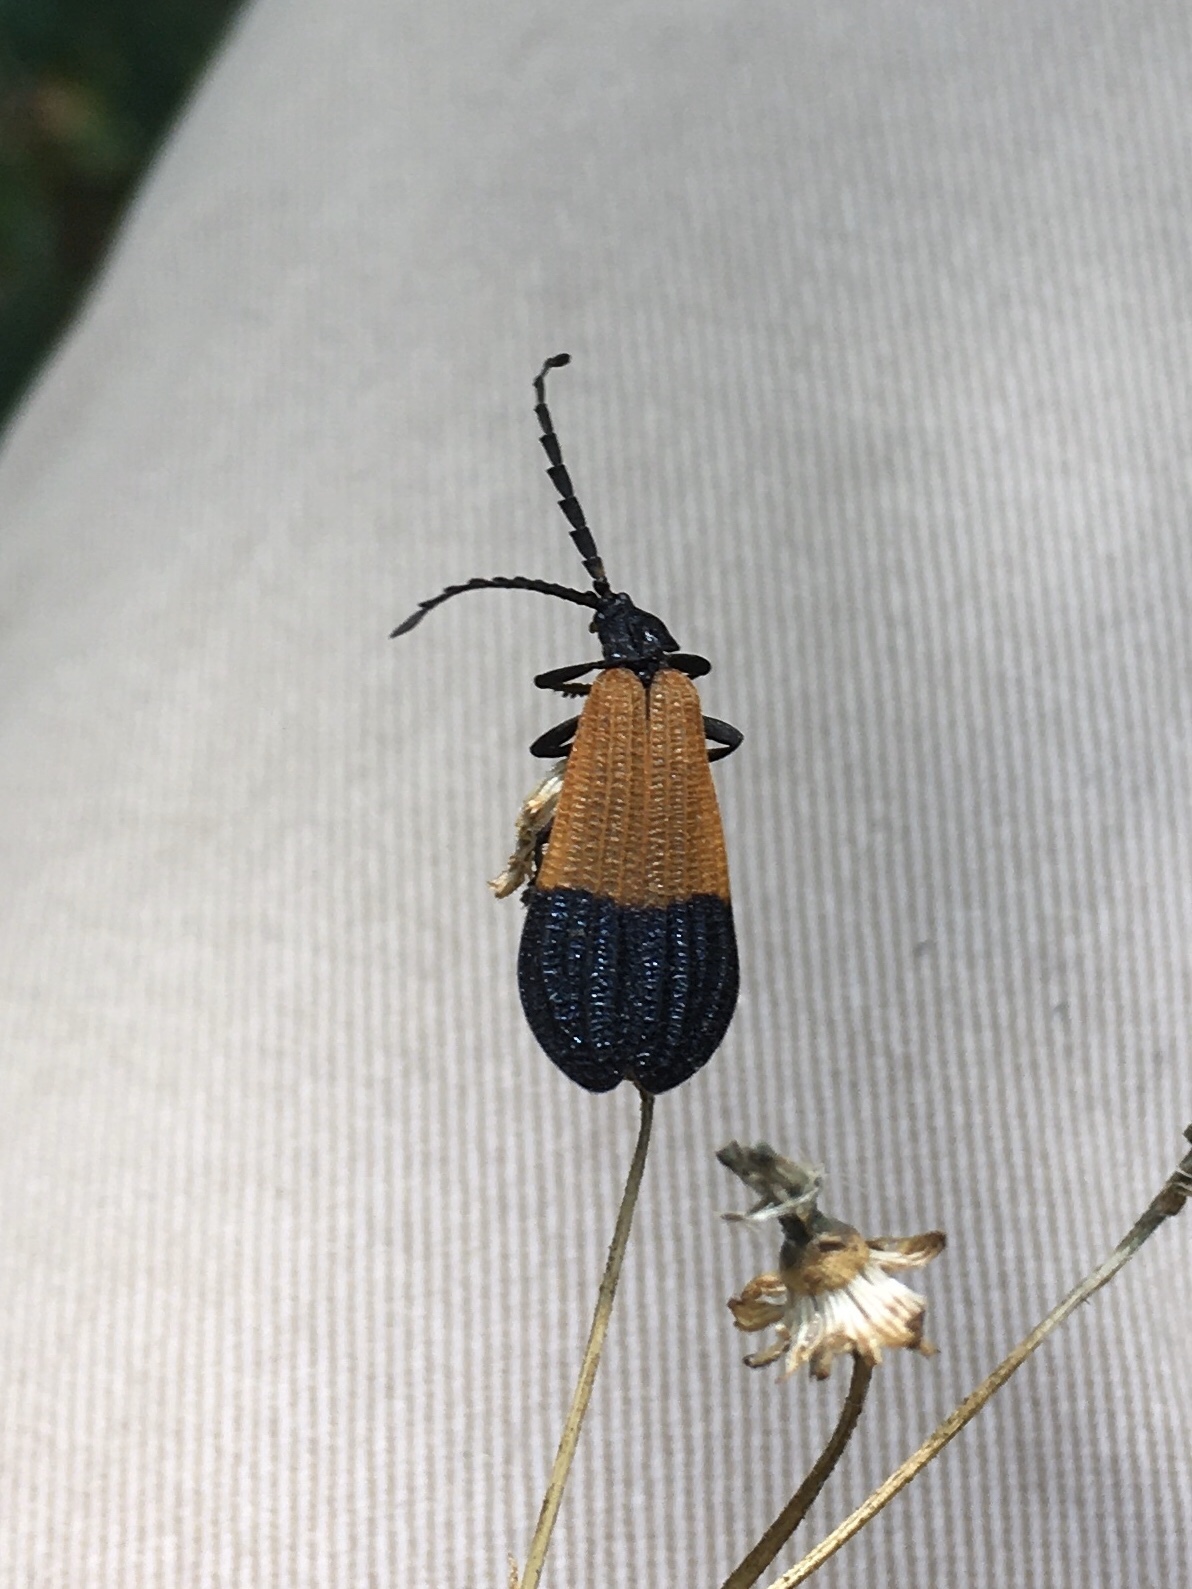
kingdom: Animalia
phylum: Arthropoda
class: Insecta
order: Coleoptera
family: Lycidae
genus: Calopteron
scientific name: Calopteron terminale
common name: End band net-winged beetle
